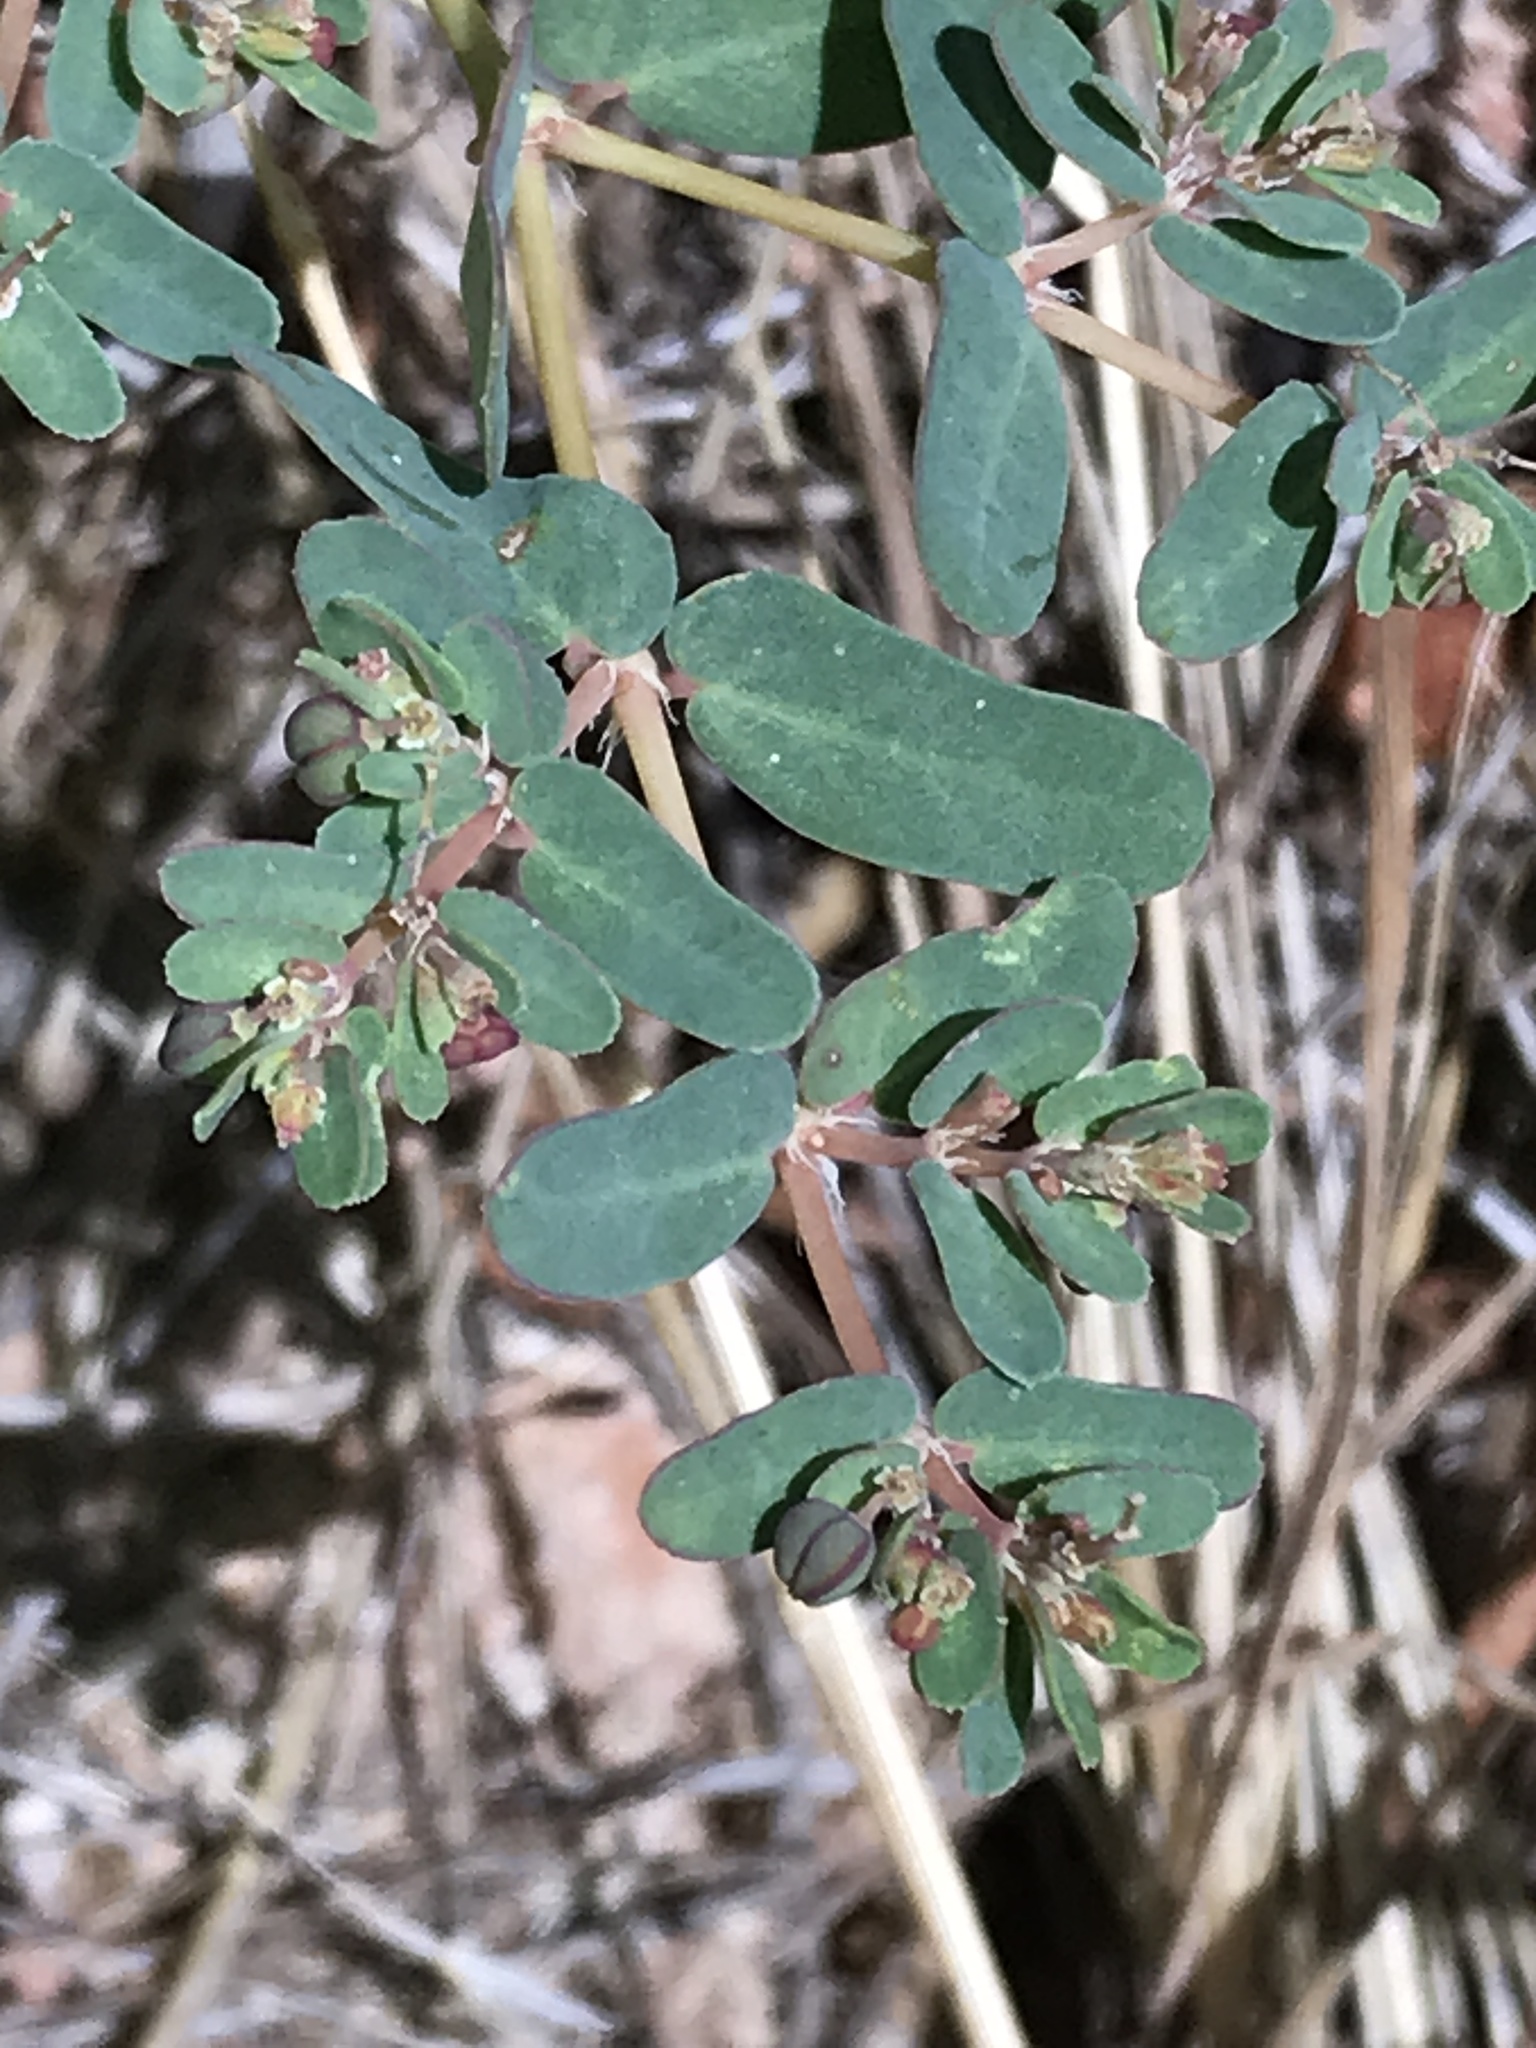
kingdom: Plantae
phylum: Tracheophyta
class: Magnoliopsida
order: Malpighiales
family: Euphorbiaceae
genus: Euphorbia
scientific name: Euphorbia glyptosperma
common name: Corrugate-seeded spurge
